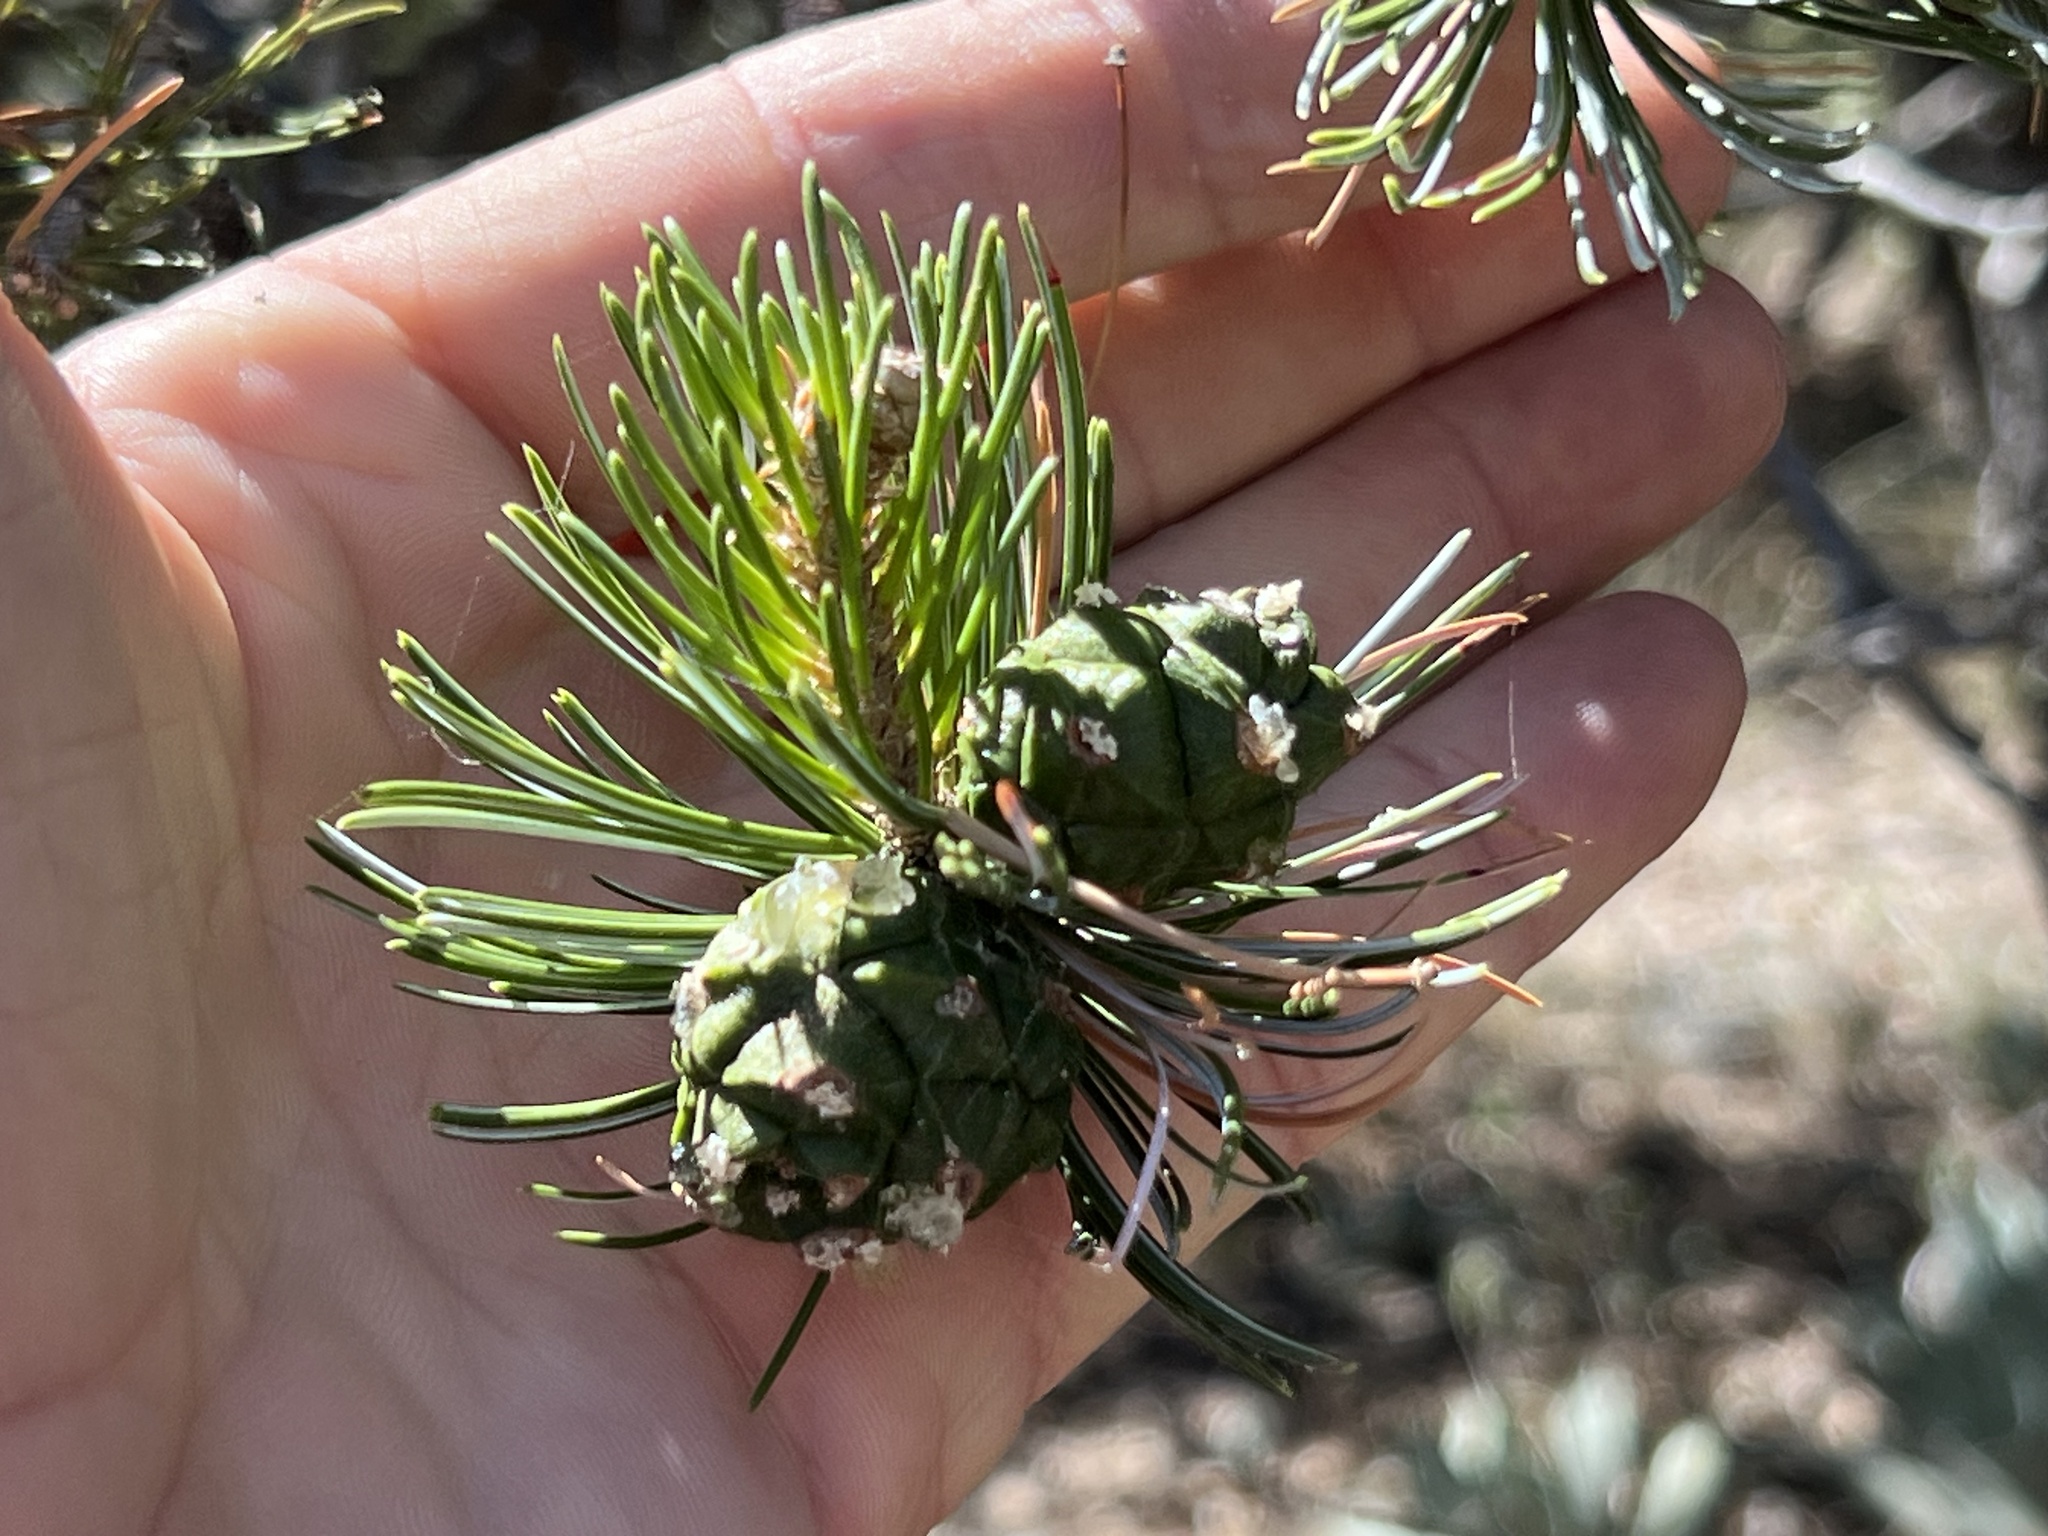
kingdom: Plantae
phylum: Tracheophyta
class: Pinopsida
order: Pinales
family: Pinaceae
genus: Pinus
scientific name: Pinus cembroides
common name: Mexican nut pine
